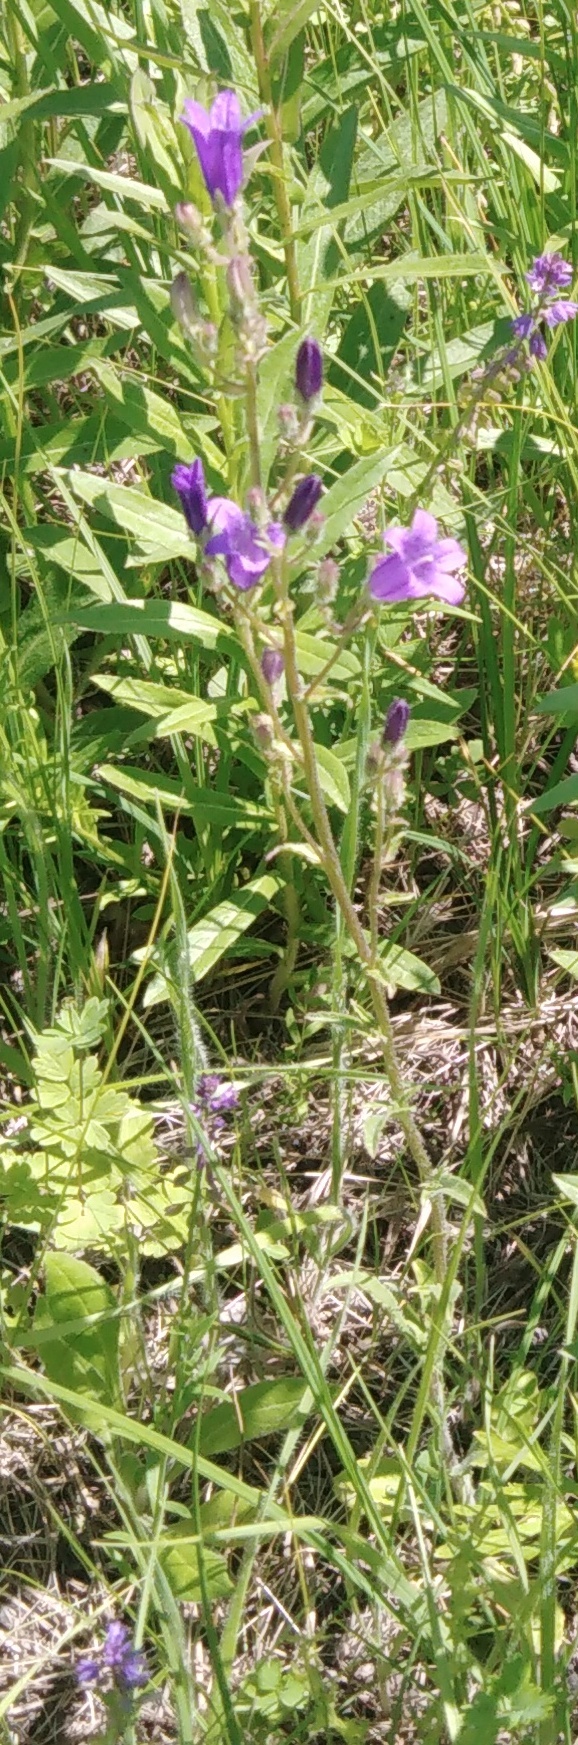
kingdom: Plantae
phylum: Tracheophyta
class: Magnoliopsida
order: Asterales
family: Campanulaceae
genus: Campanula
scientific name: Campanula sibirica
